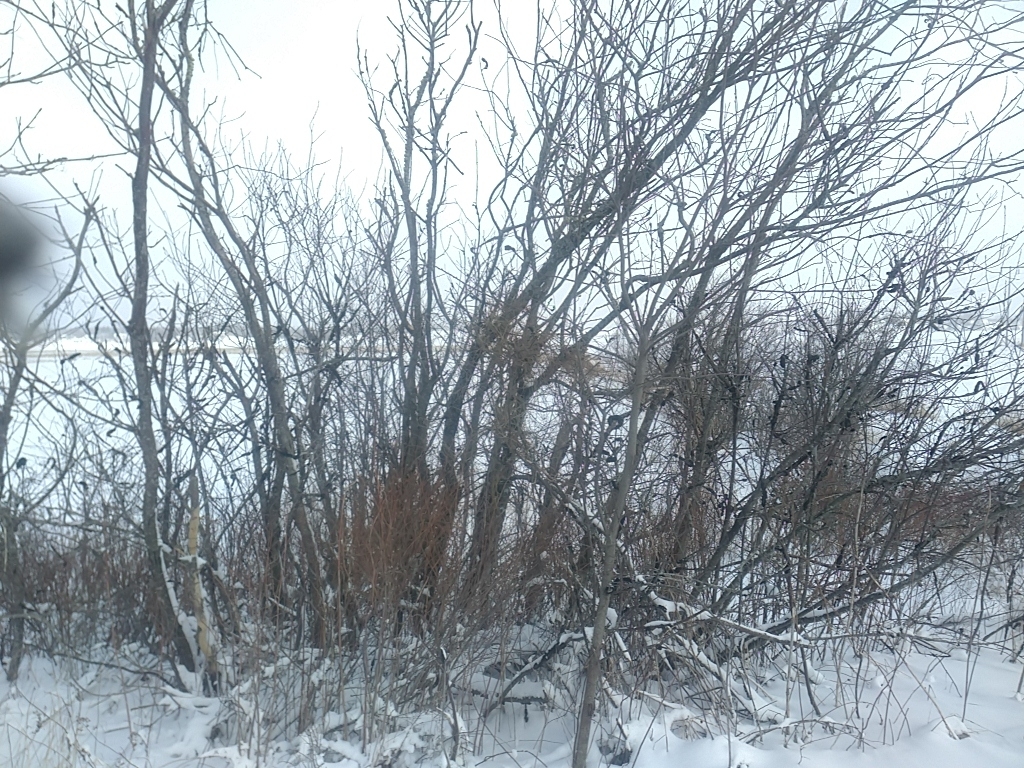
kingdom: Fungi
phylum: Ascomycota
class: Dothideomycetes
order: Venturiales
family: Venturiaceae
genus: Apiosporina
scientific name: Apiosporina morbosa
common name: Black knot
